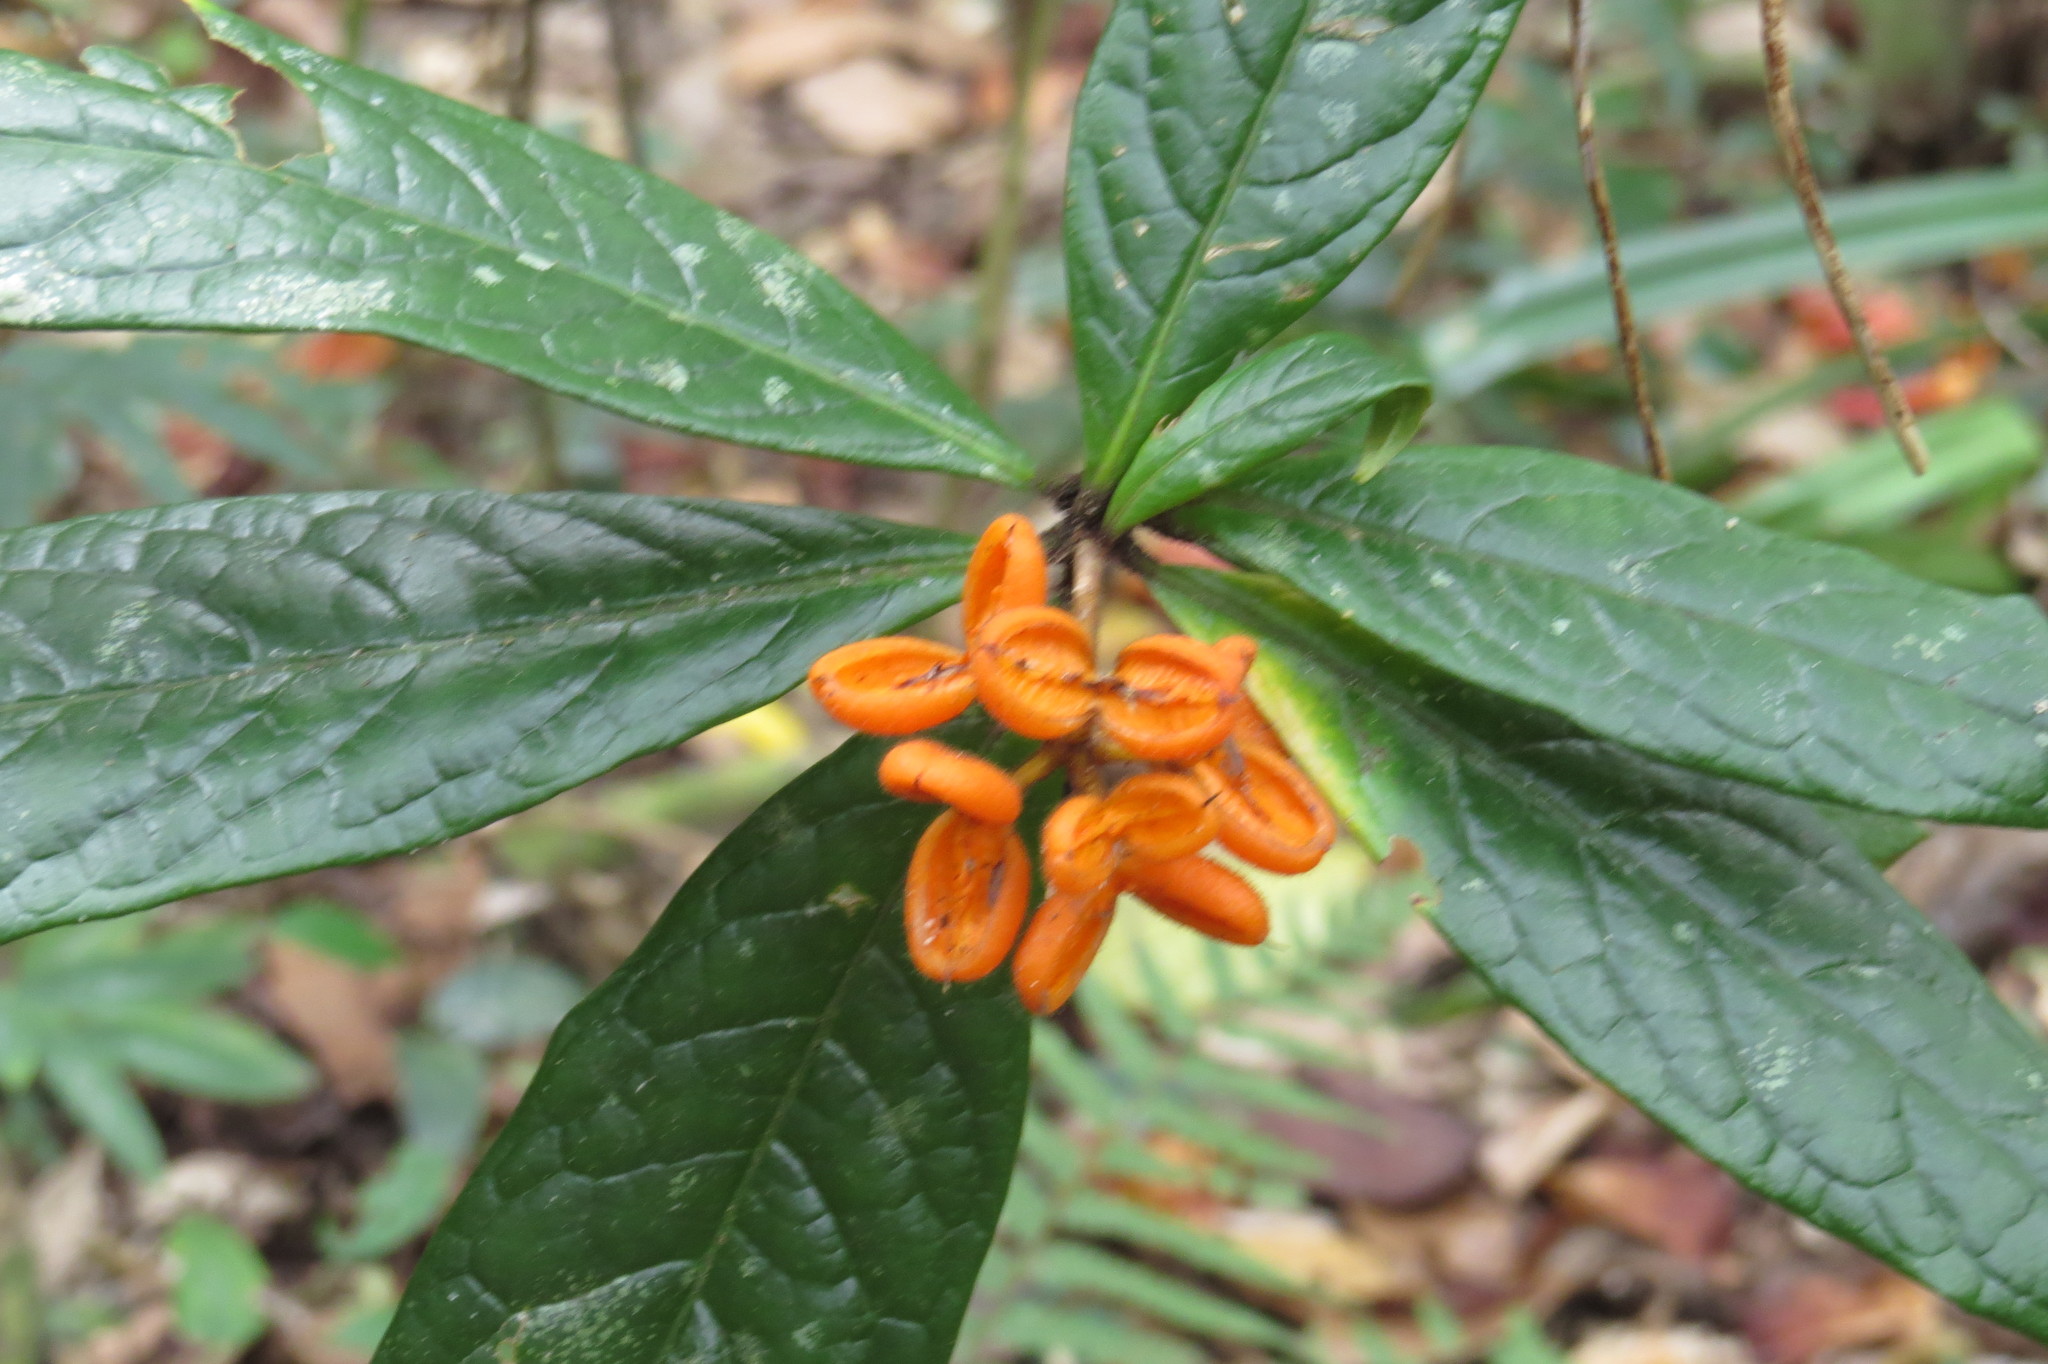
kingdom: Plantae
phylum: Tracheophyta
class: Magnoliopsida
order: Apiales
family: Pittosporaceae
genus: Pittosporum
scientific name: Pittosporum rubiginosum
